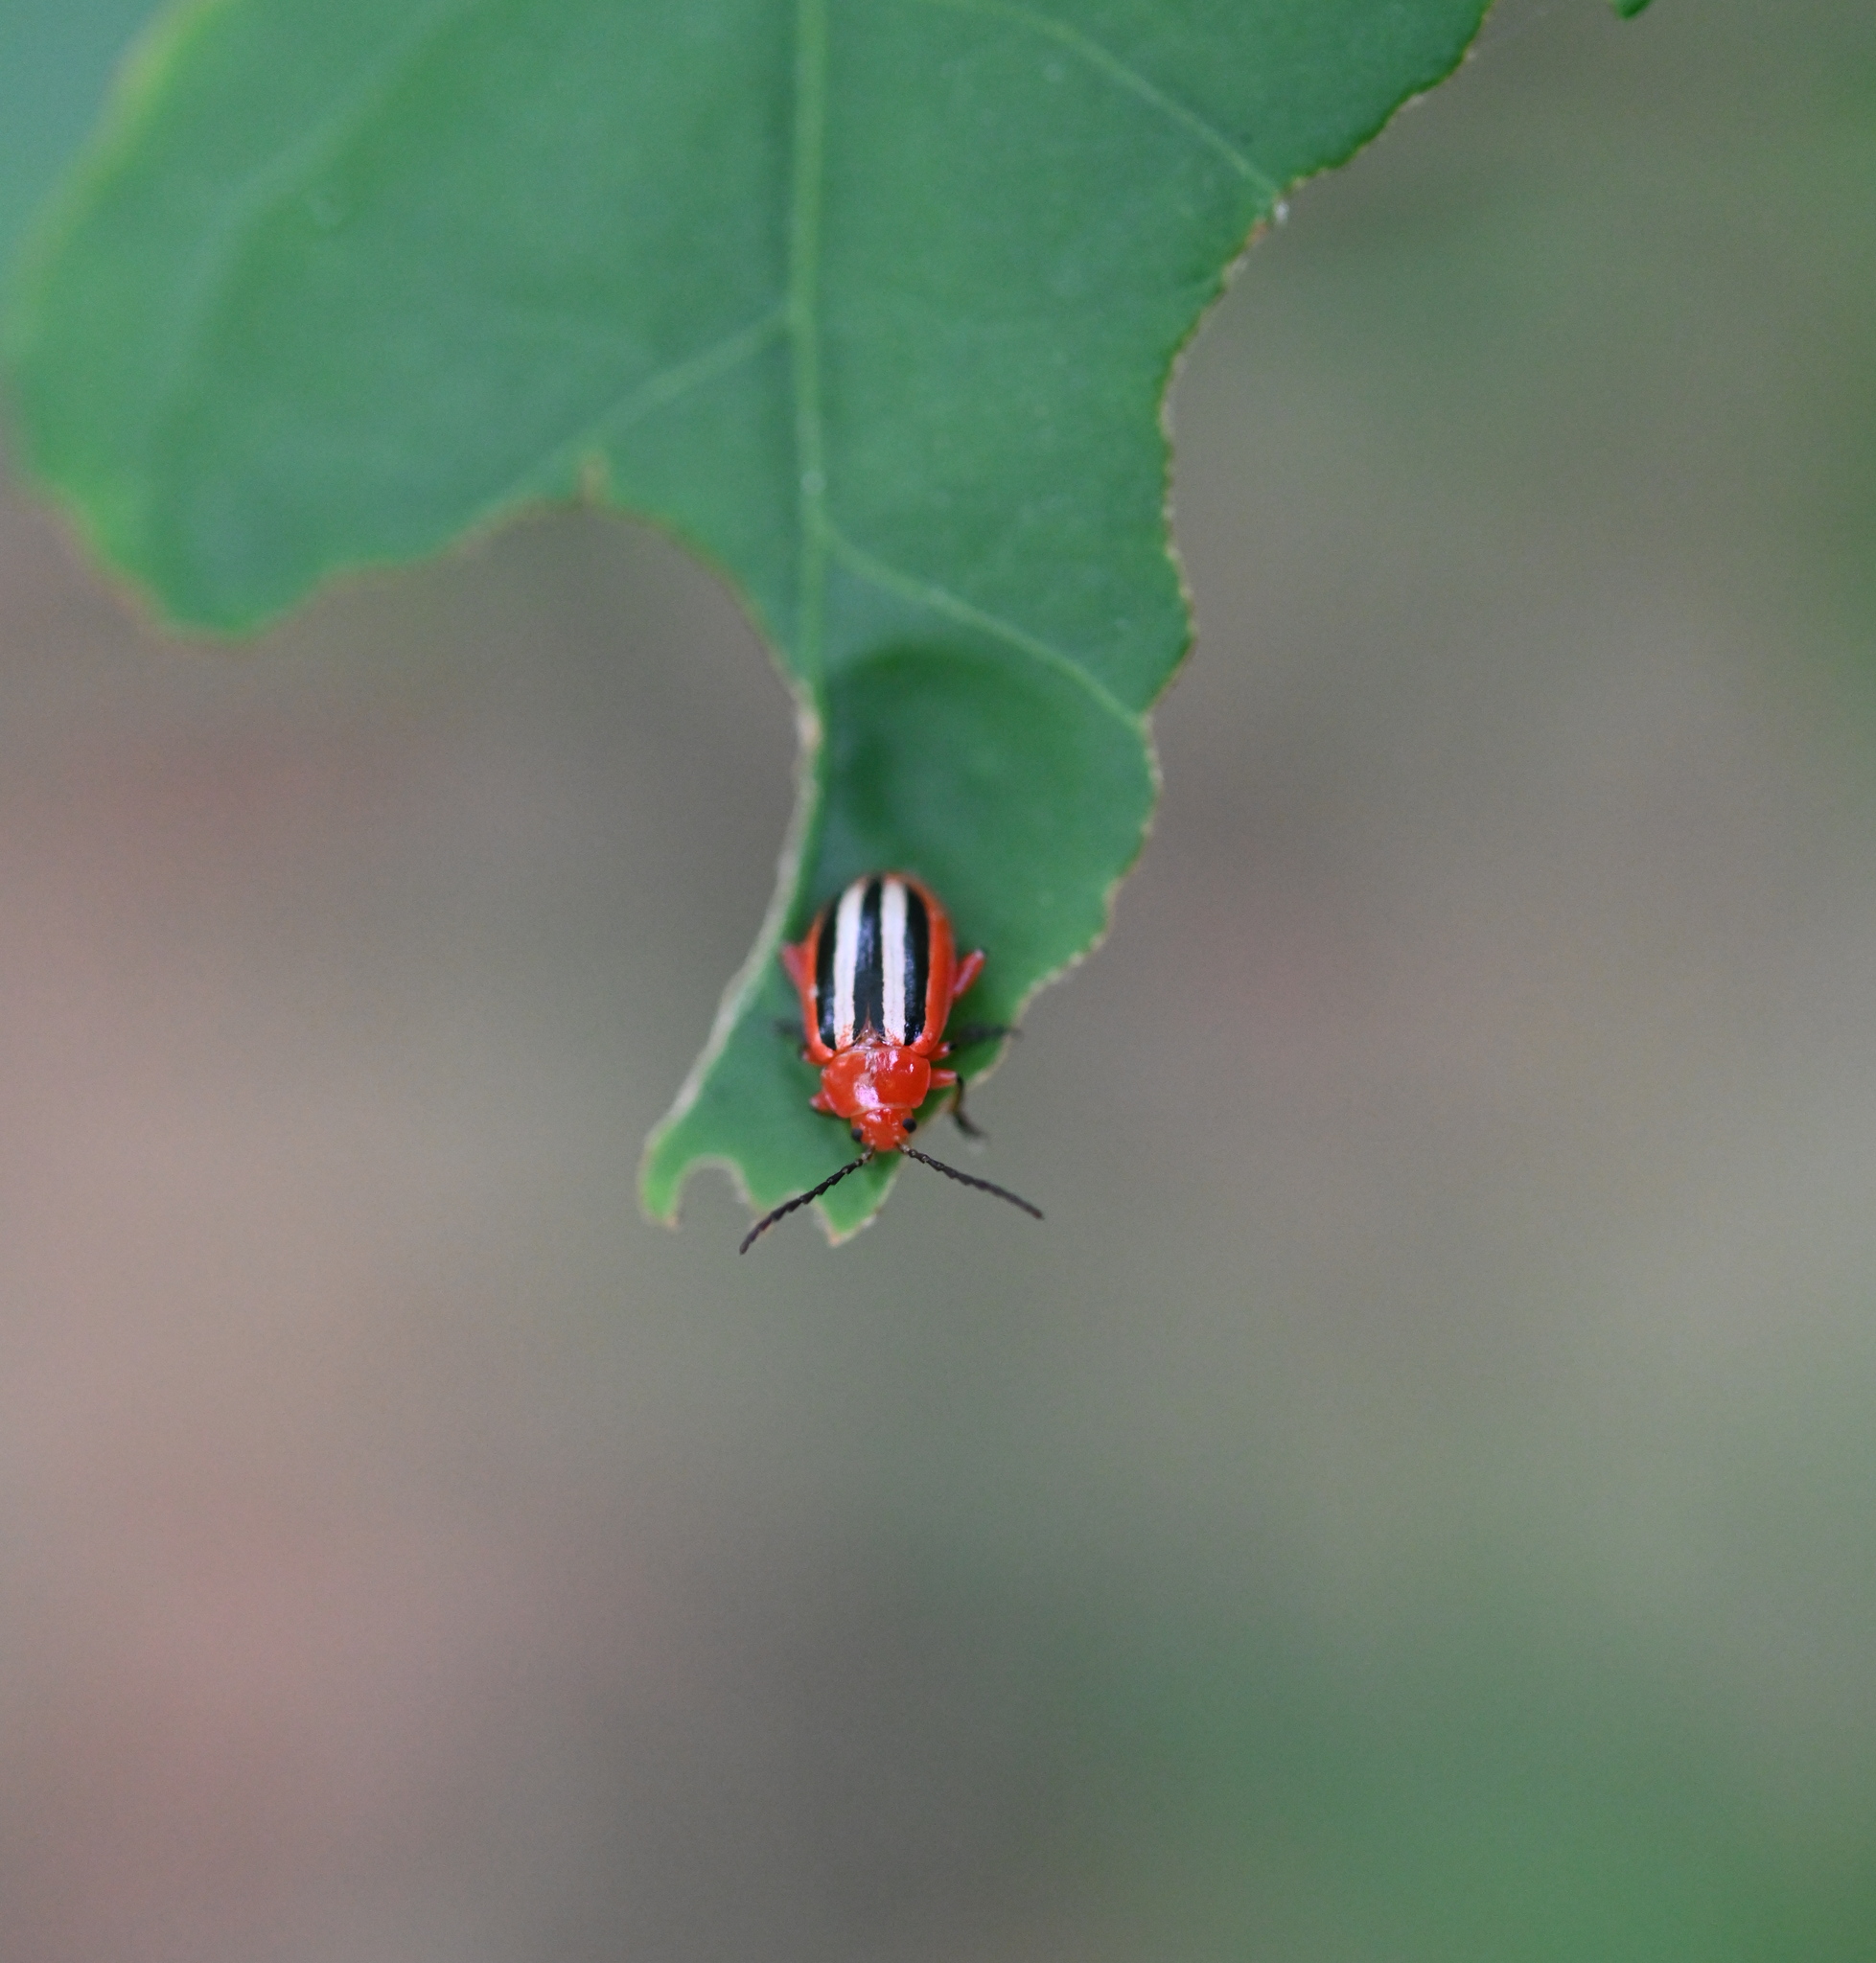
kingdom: Animalia
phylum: Arthropoda
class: Insecta
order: Coleoptera
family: Chrysomelidae
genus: Disonycha
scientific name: Disonycha discoidea
